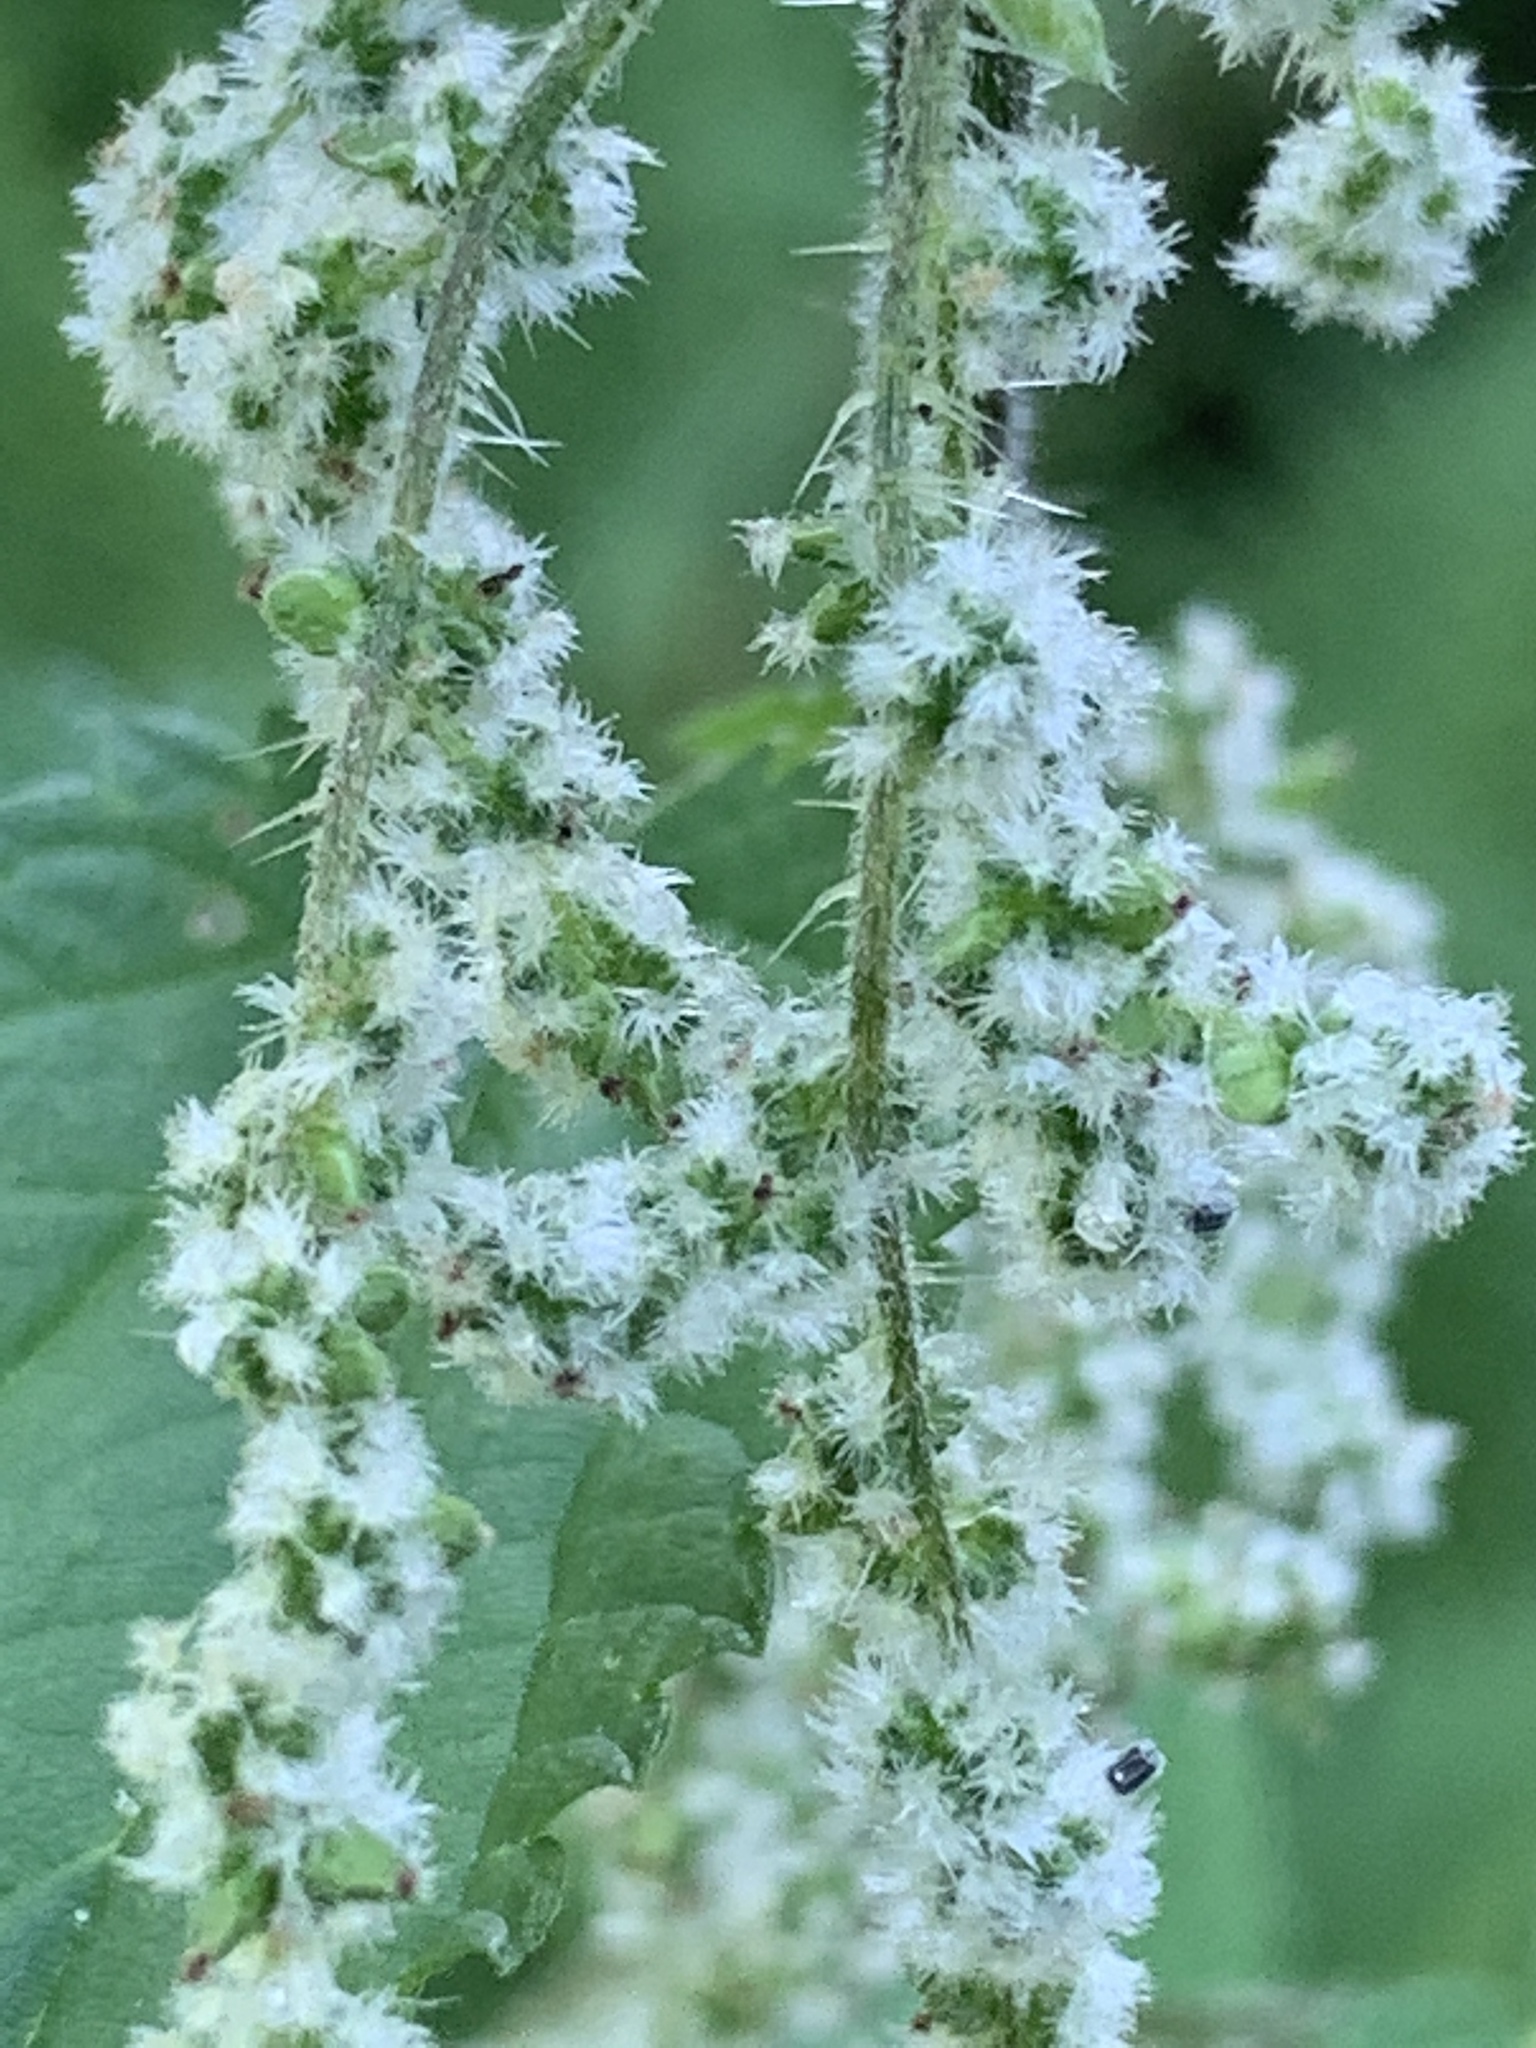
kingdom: Plantae
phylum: Tracheophyta
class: Magnoliopsida
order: Rosales
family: Urticaceae
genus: Urtica
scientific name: Urtica dioica
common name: Common nettle
